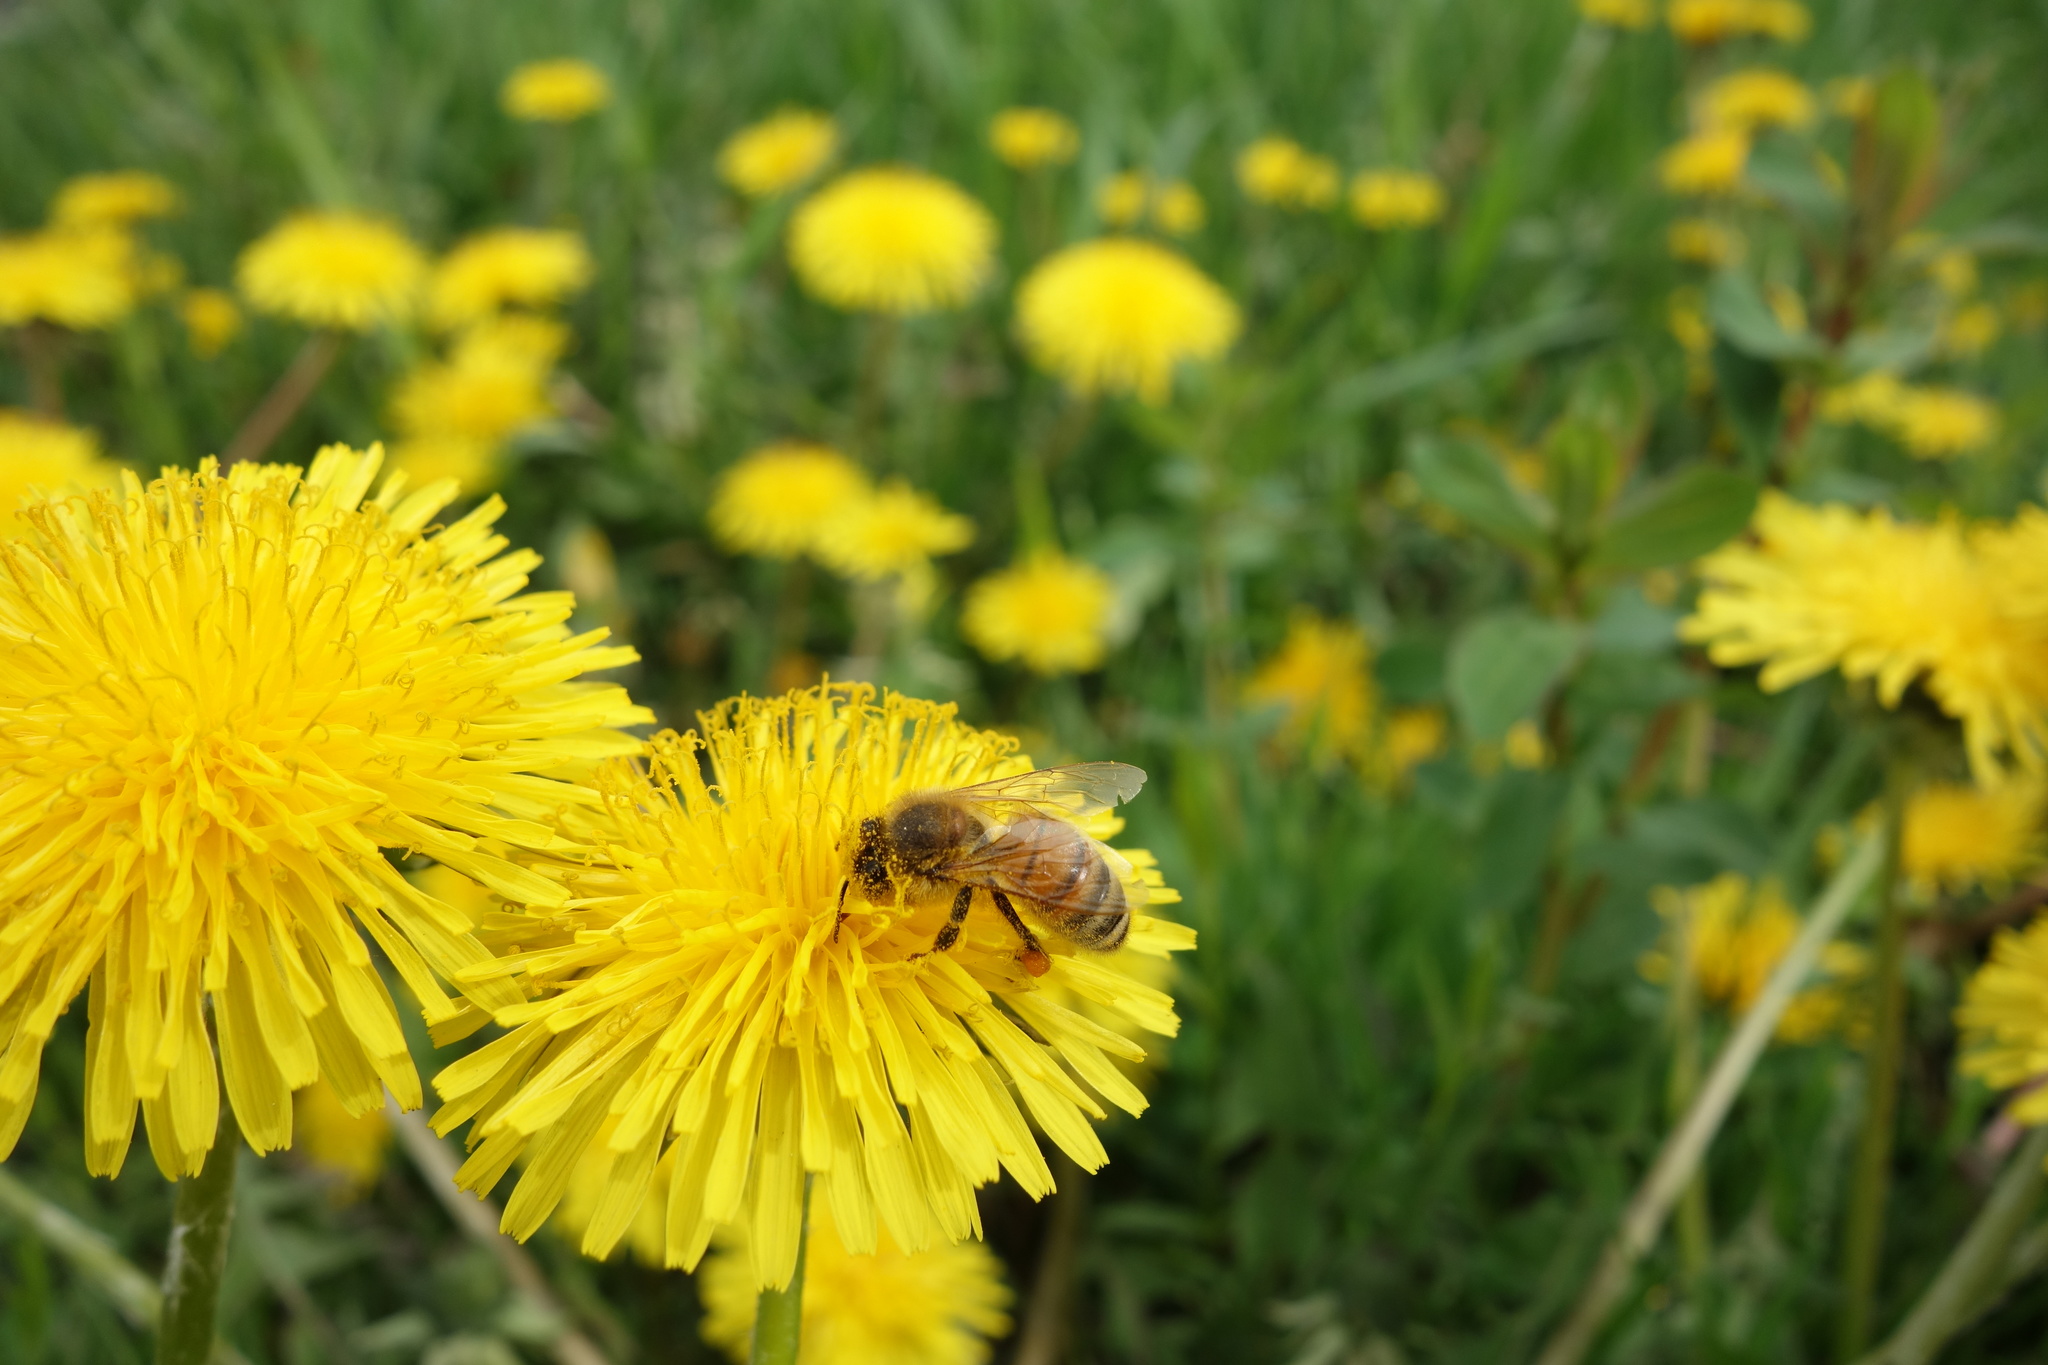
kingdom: Animalia
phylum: Arthropoda
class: Insecta
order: Hymenoptera
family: Apidae
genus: Apis
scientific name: Apis mellifera
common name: Honey bee
